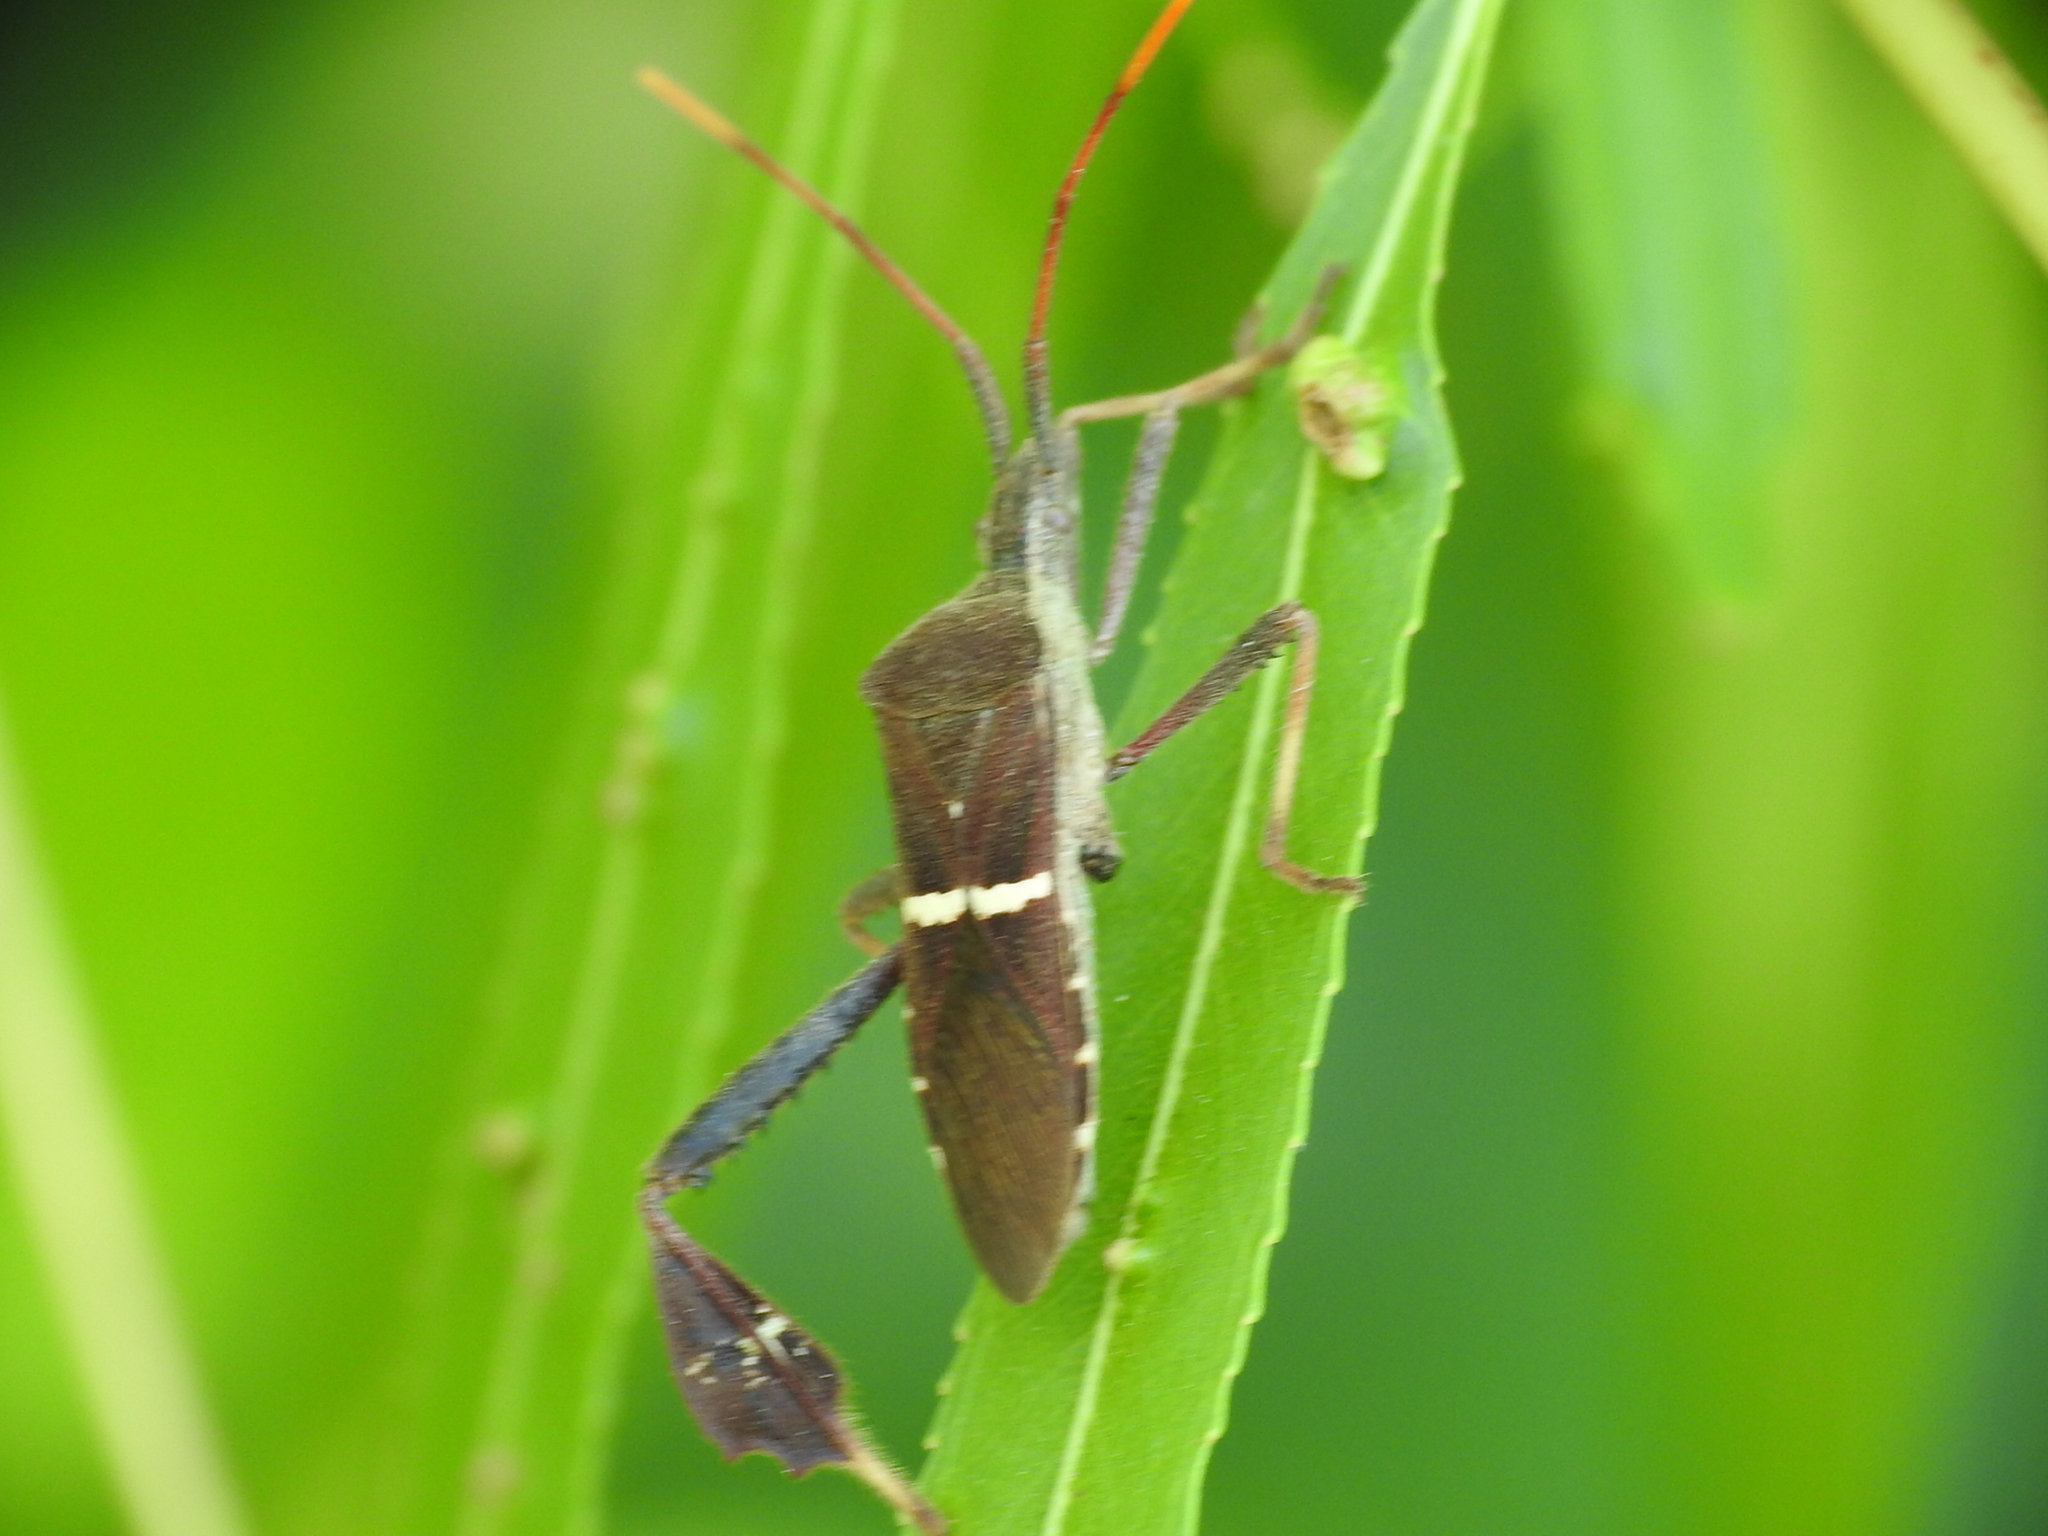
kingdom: Animalia
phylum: Arthropoda
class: Insecta
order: Hemiptera
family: Coreidae
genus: Leptoglossus
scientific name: Leptoglossus phyllopus
